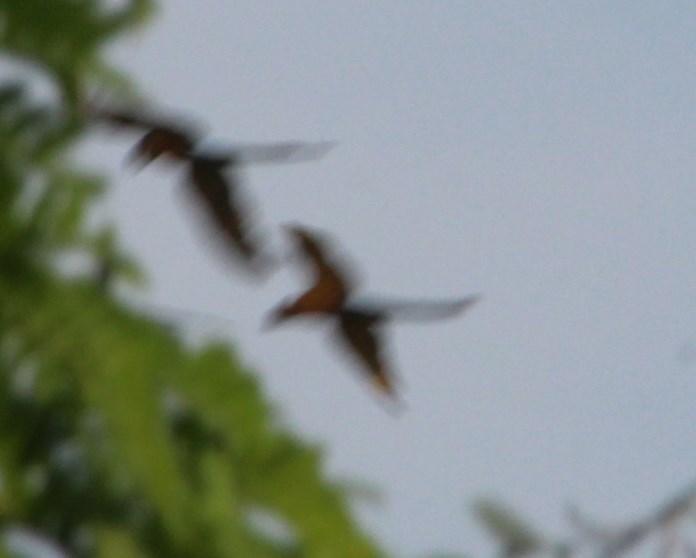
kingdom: Animalia
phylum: Chordata
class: Aves
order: Psittaciformes
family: Psittacidae
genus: Ara
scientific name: Ara ararauna
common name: Blue-and-yellow macaw
